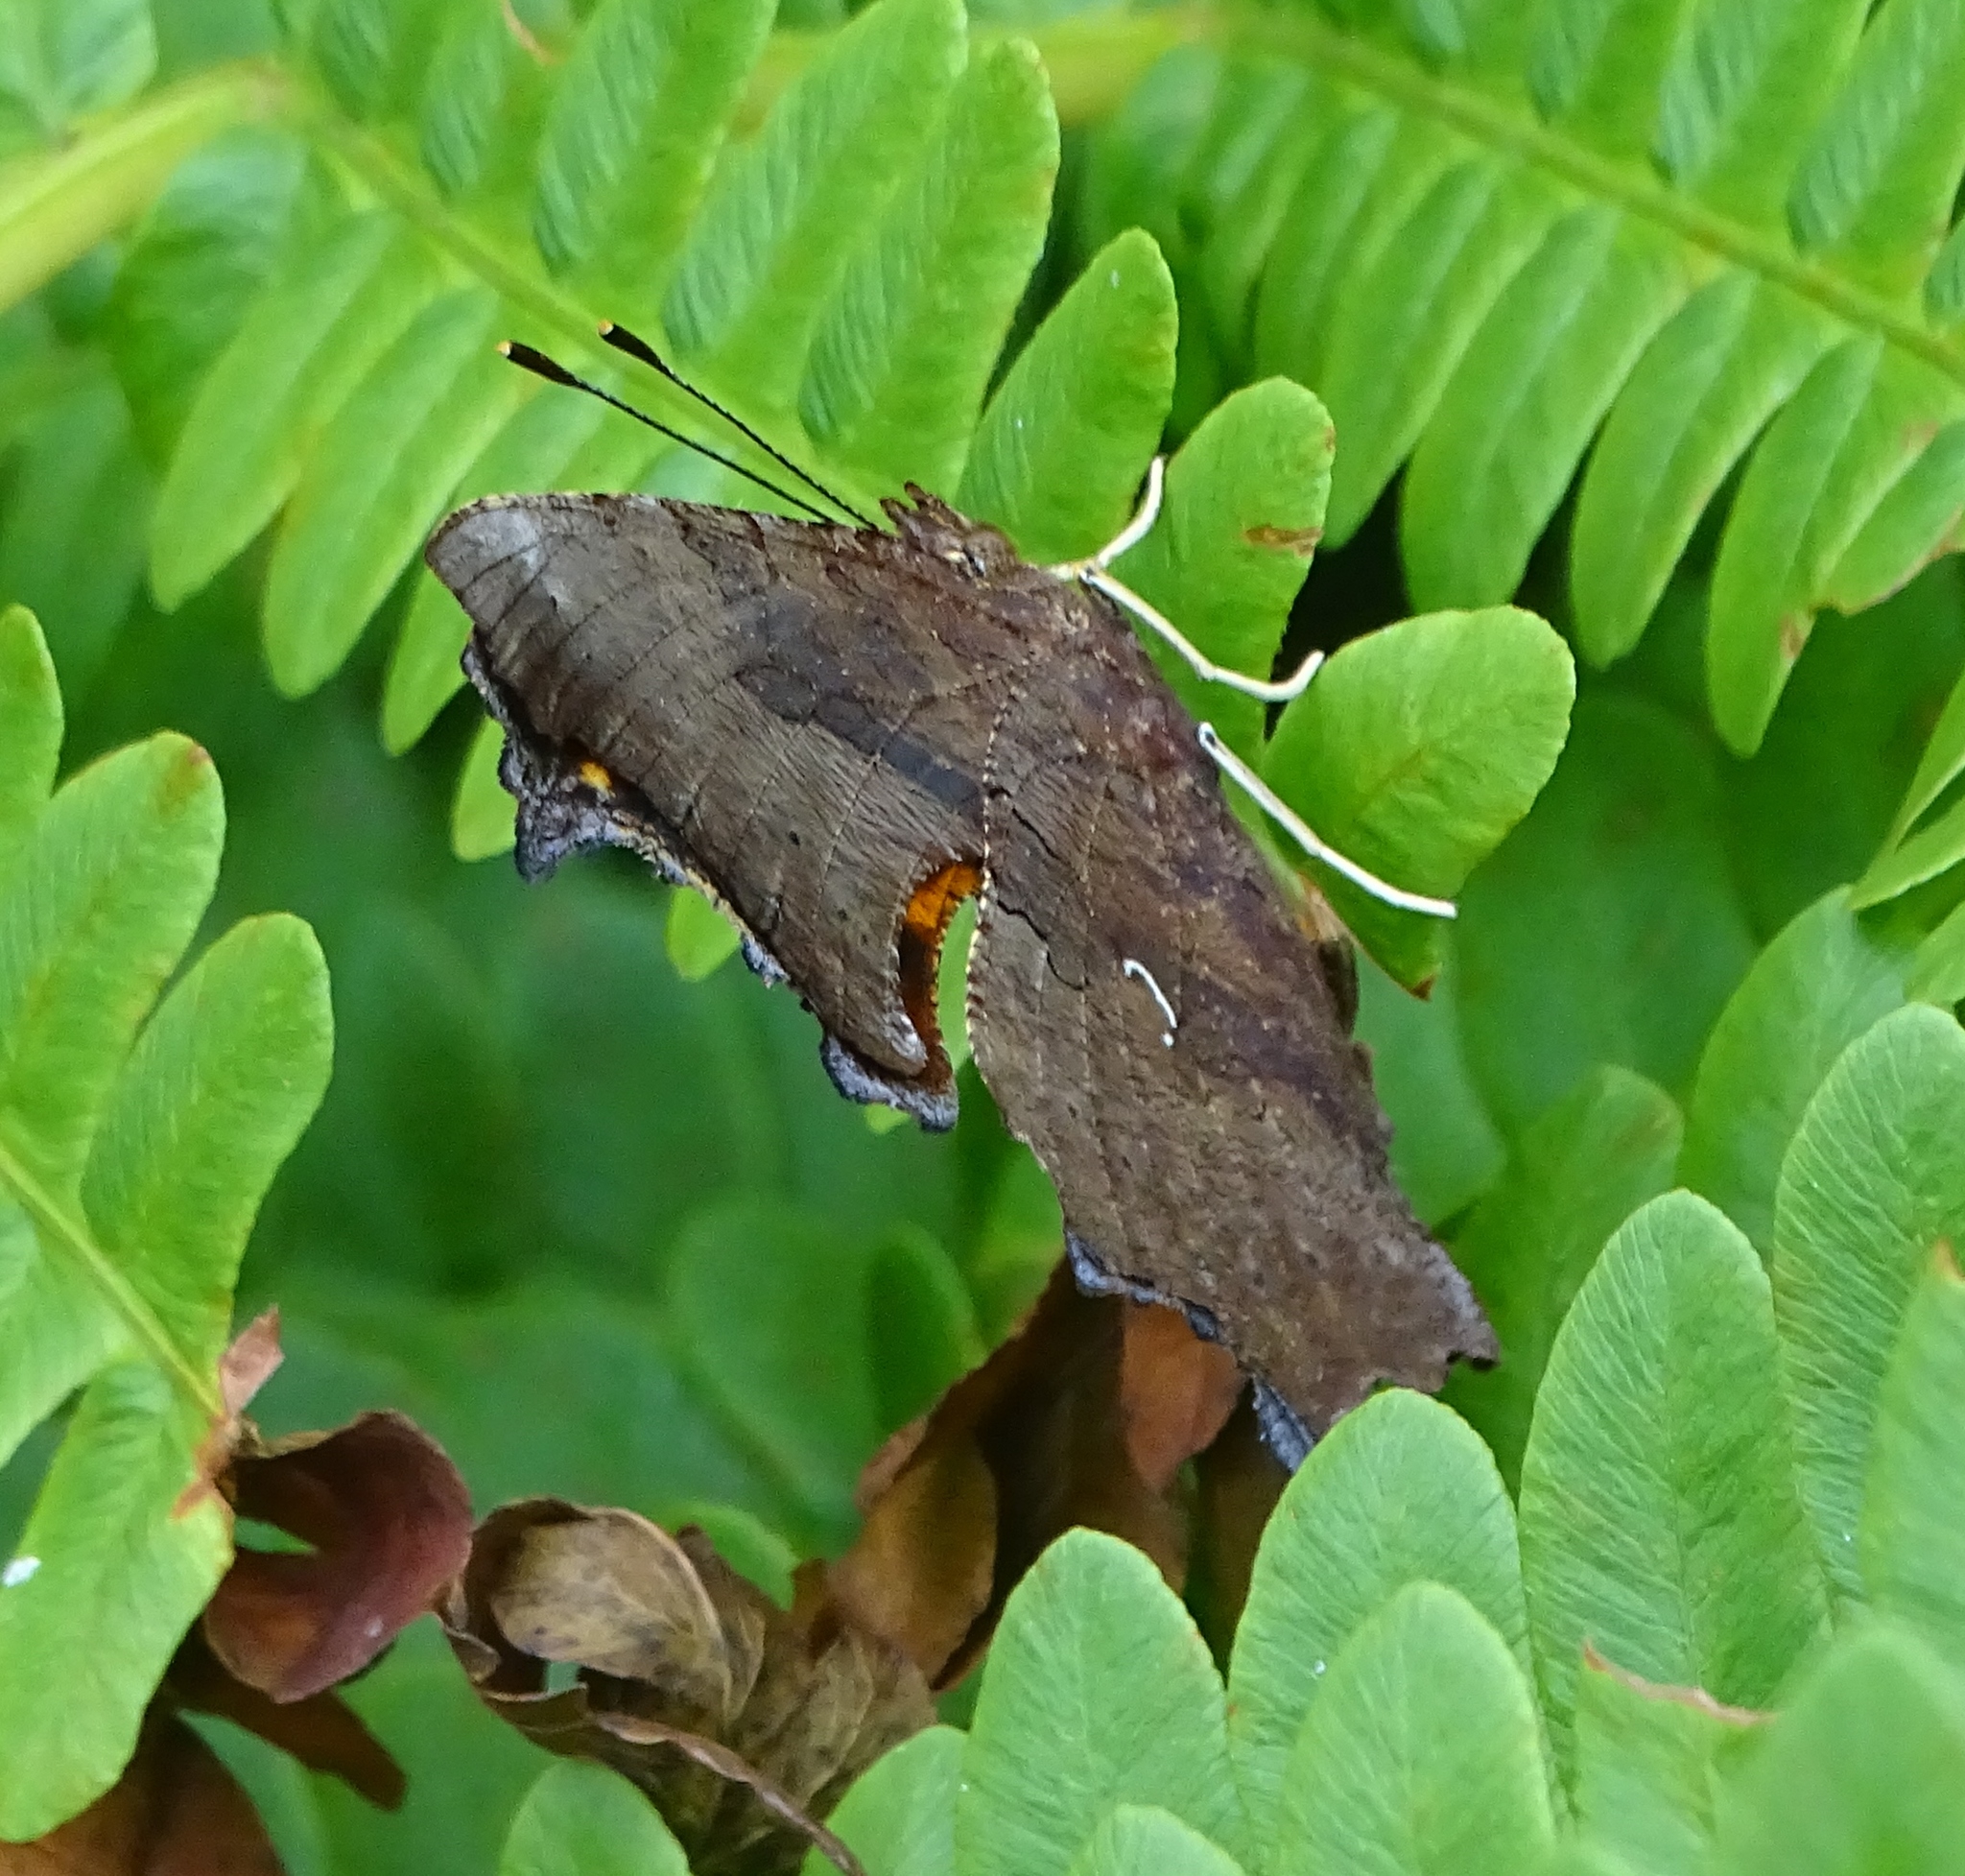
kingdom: Animalia
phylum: Arthropoda
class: Insecta
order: Lepidoptera
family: Nymphalidae
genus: Polygonia
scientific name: Polygonia interrogationis
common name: Question mark
